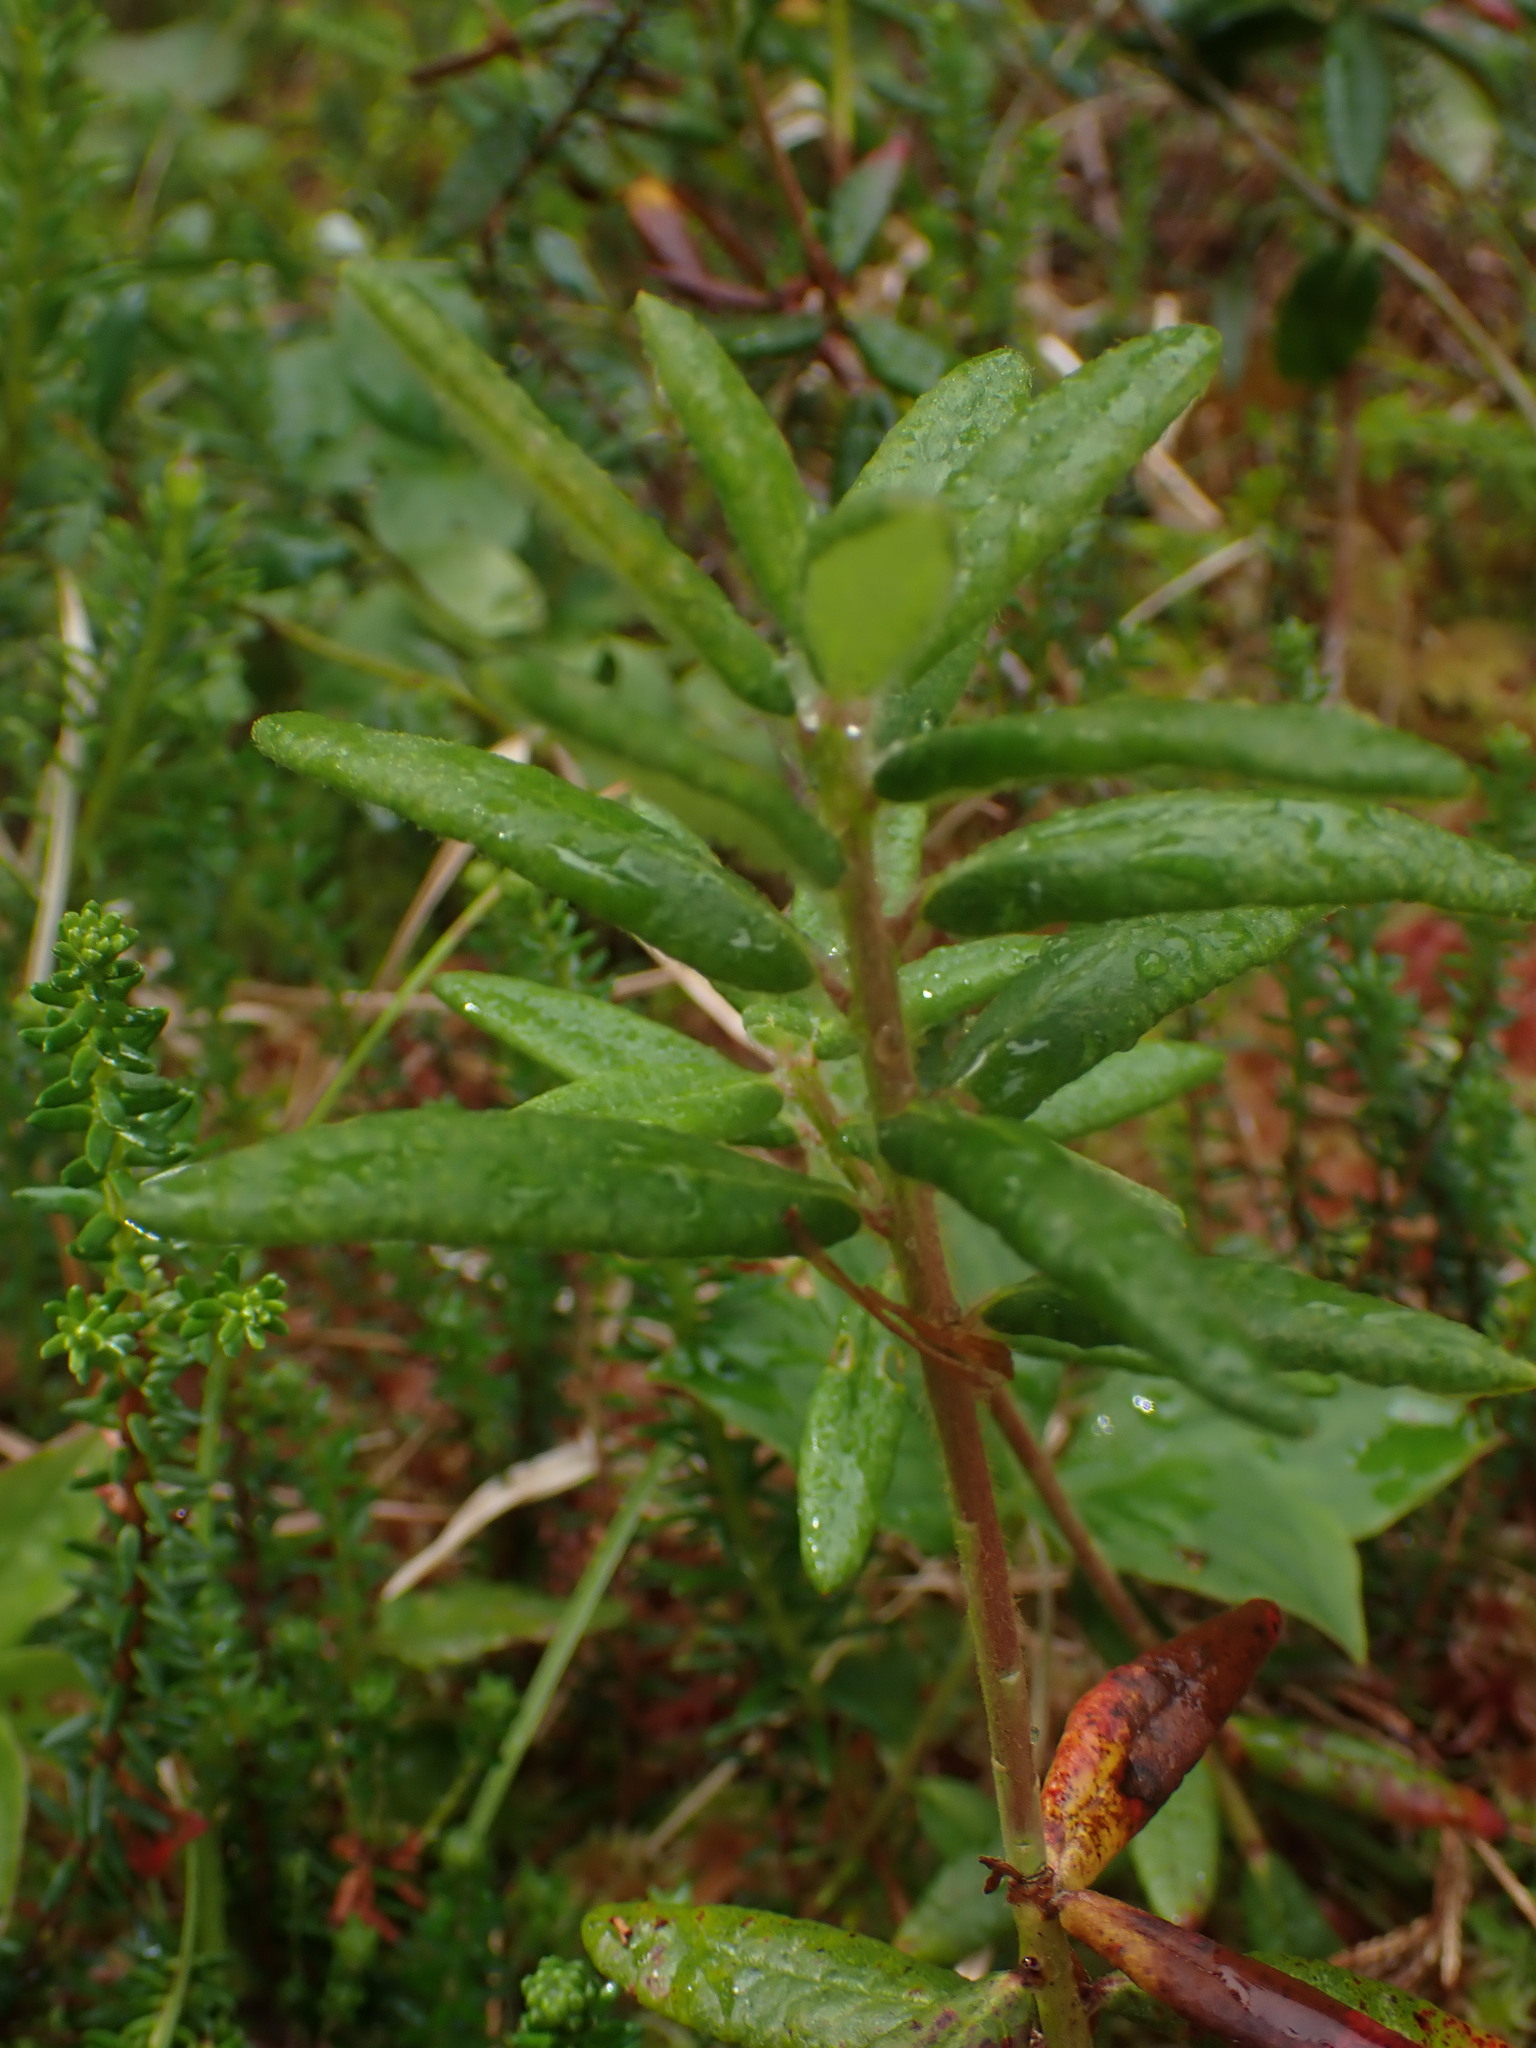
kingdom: Plantae
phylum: Tracheophyta
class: Magnoliopsida
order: Ericales
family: Ericaceae
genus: Rhododendron
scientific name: Rhododendron groenlandicum
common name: Bog labrador tea
